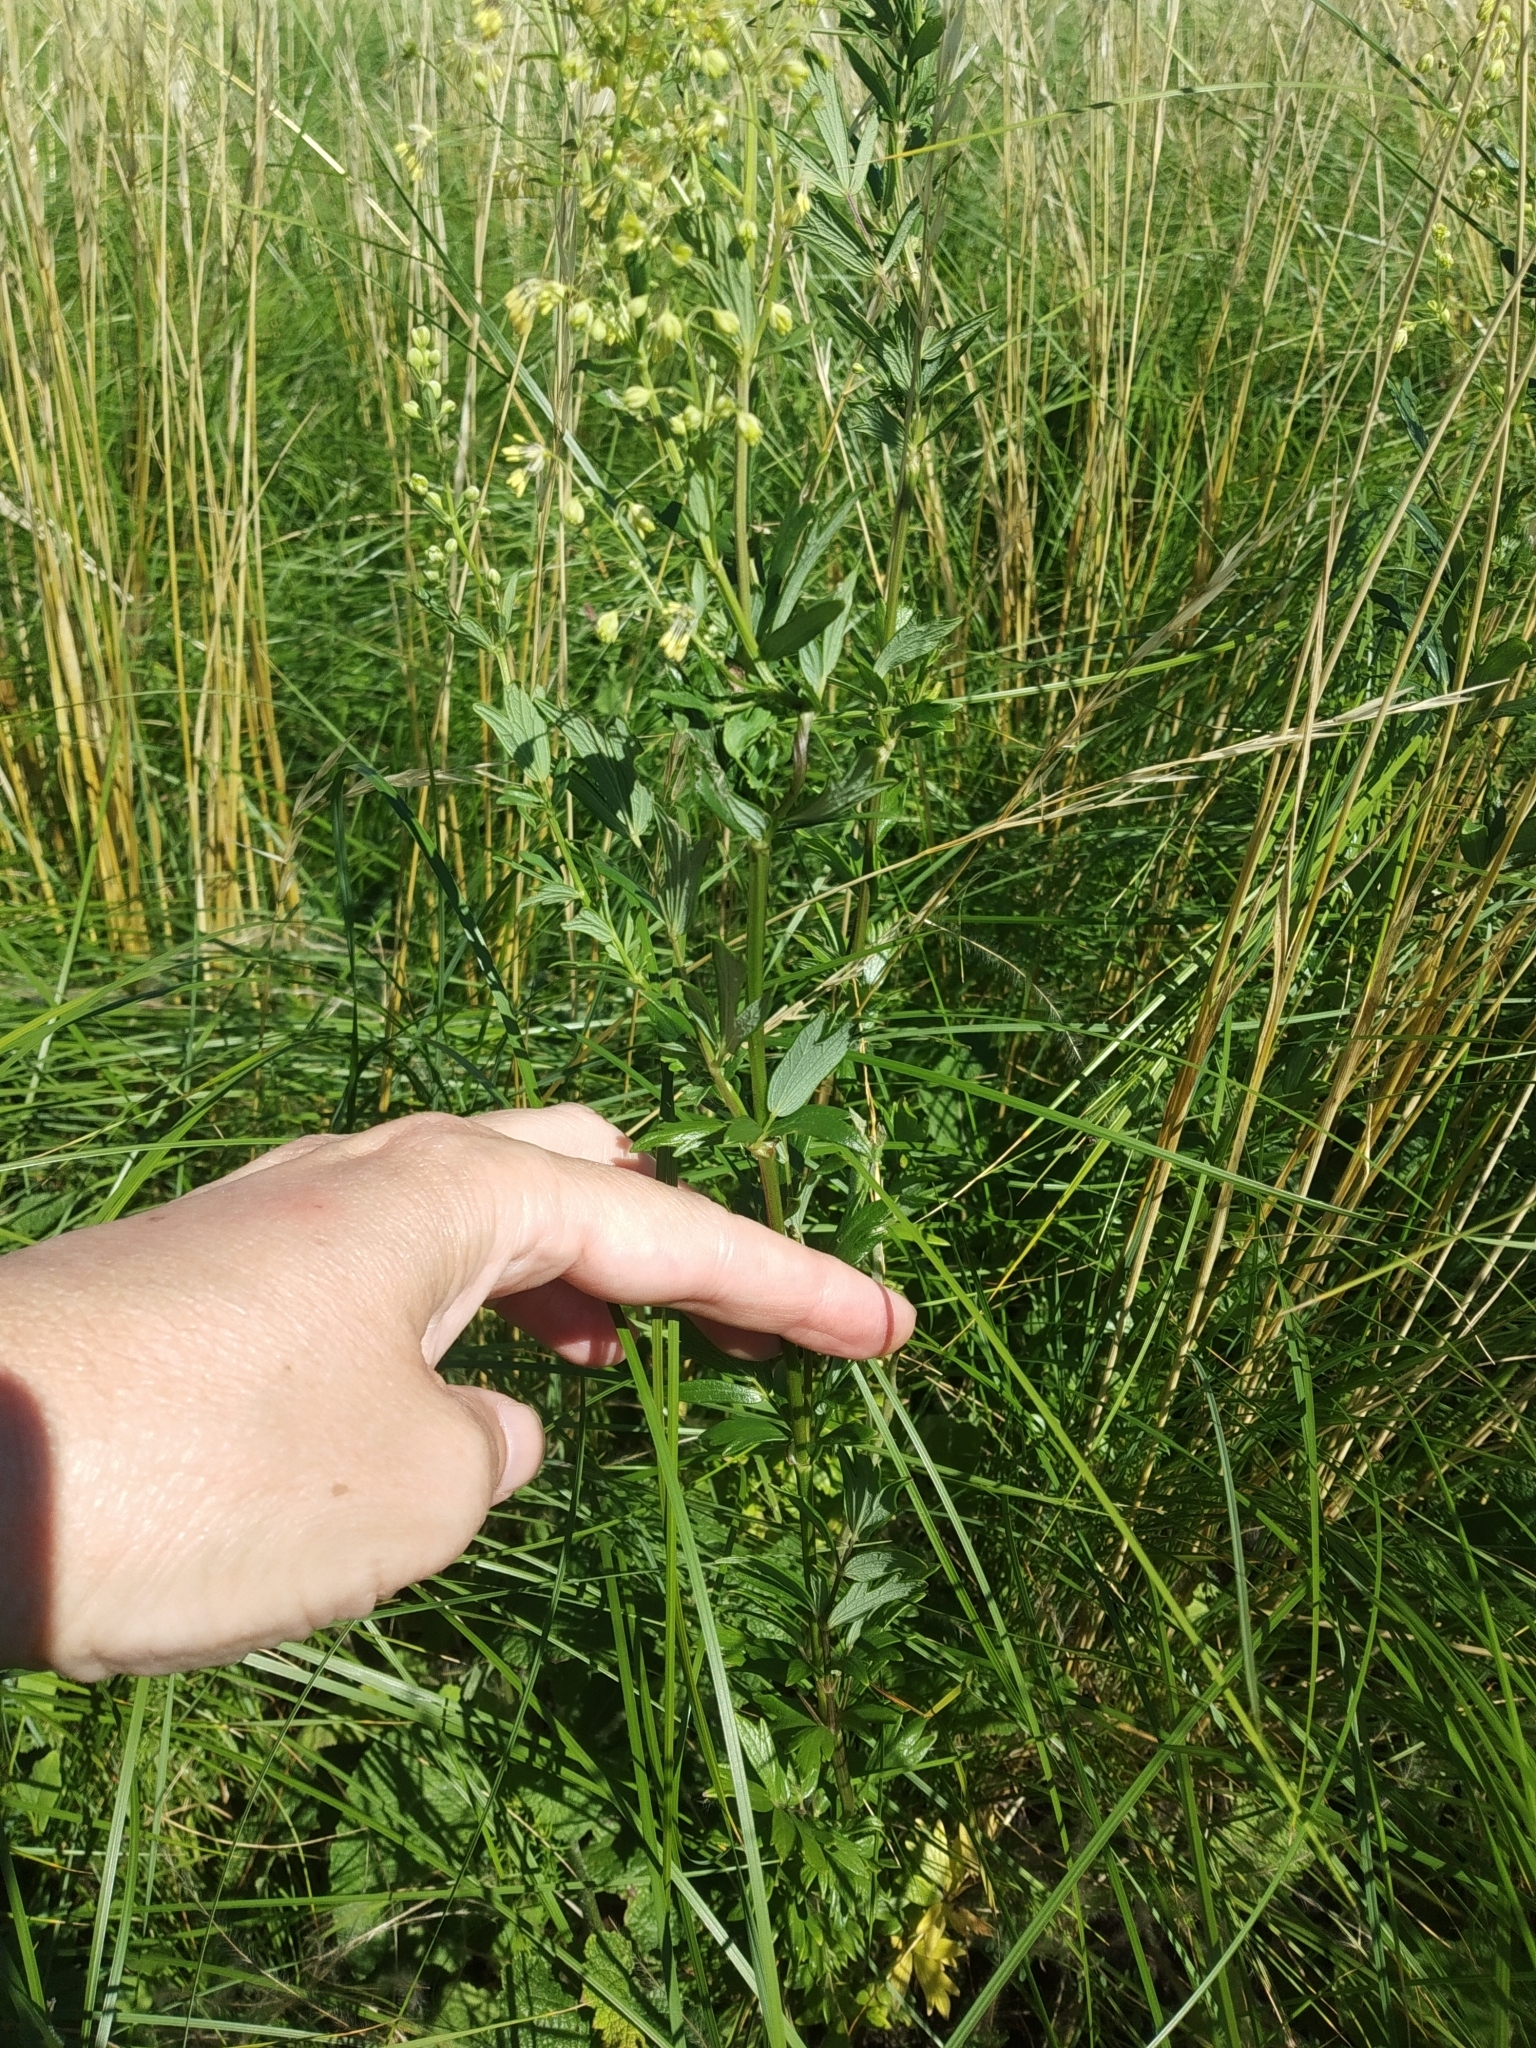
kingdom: Plantae
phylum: Tracheophyta
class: Magnoliopsida
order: Ranunculales
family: Ranunculaceae
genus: Thalictrum
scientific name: Thalictrum simplex
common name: Small meadow-rue
